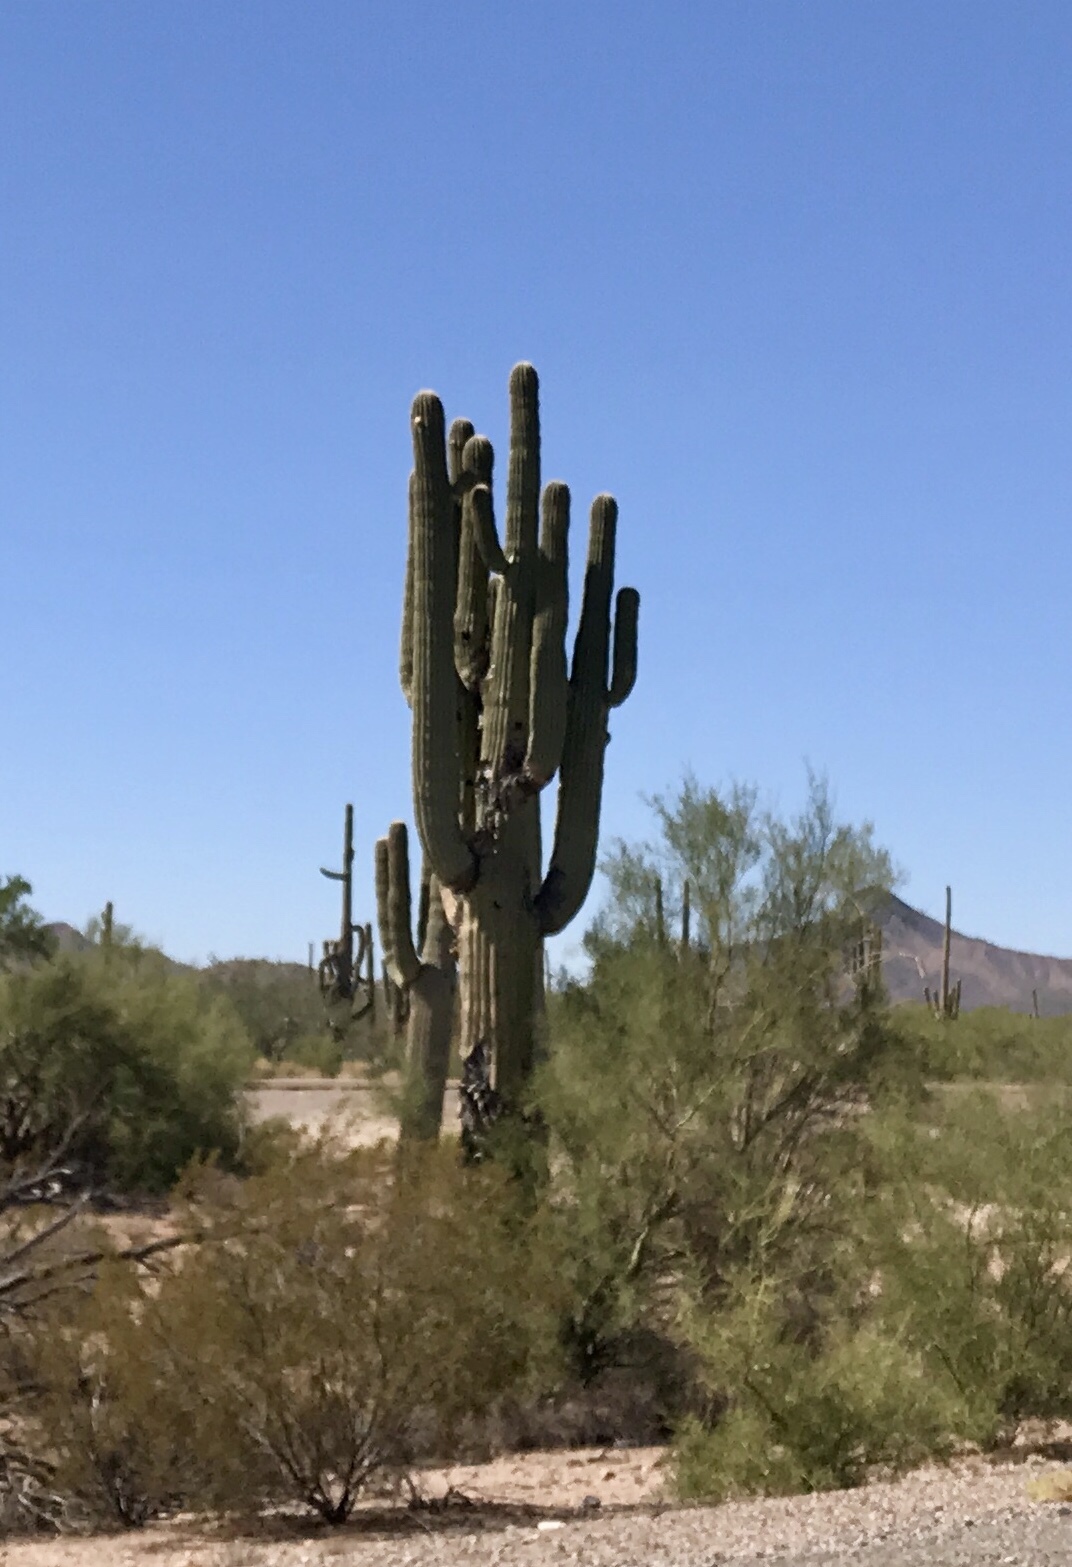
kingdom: Plantae
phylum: Tracheophyta
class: Magnoliopsida
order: Caryophyllales
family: Cactaceae
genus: Carnegiea
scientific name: Carnegiea gigantea
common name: Saguaro
